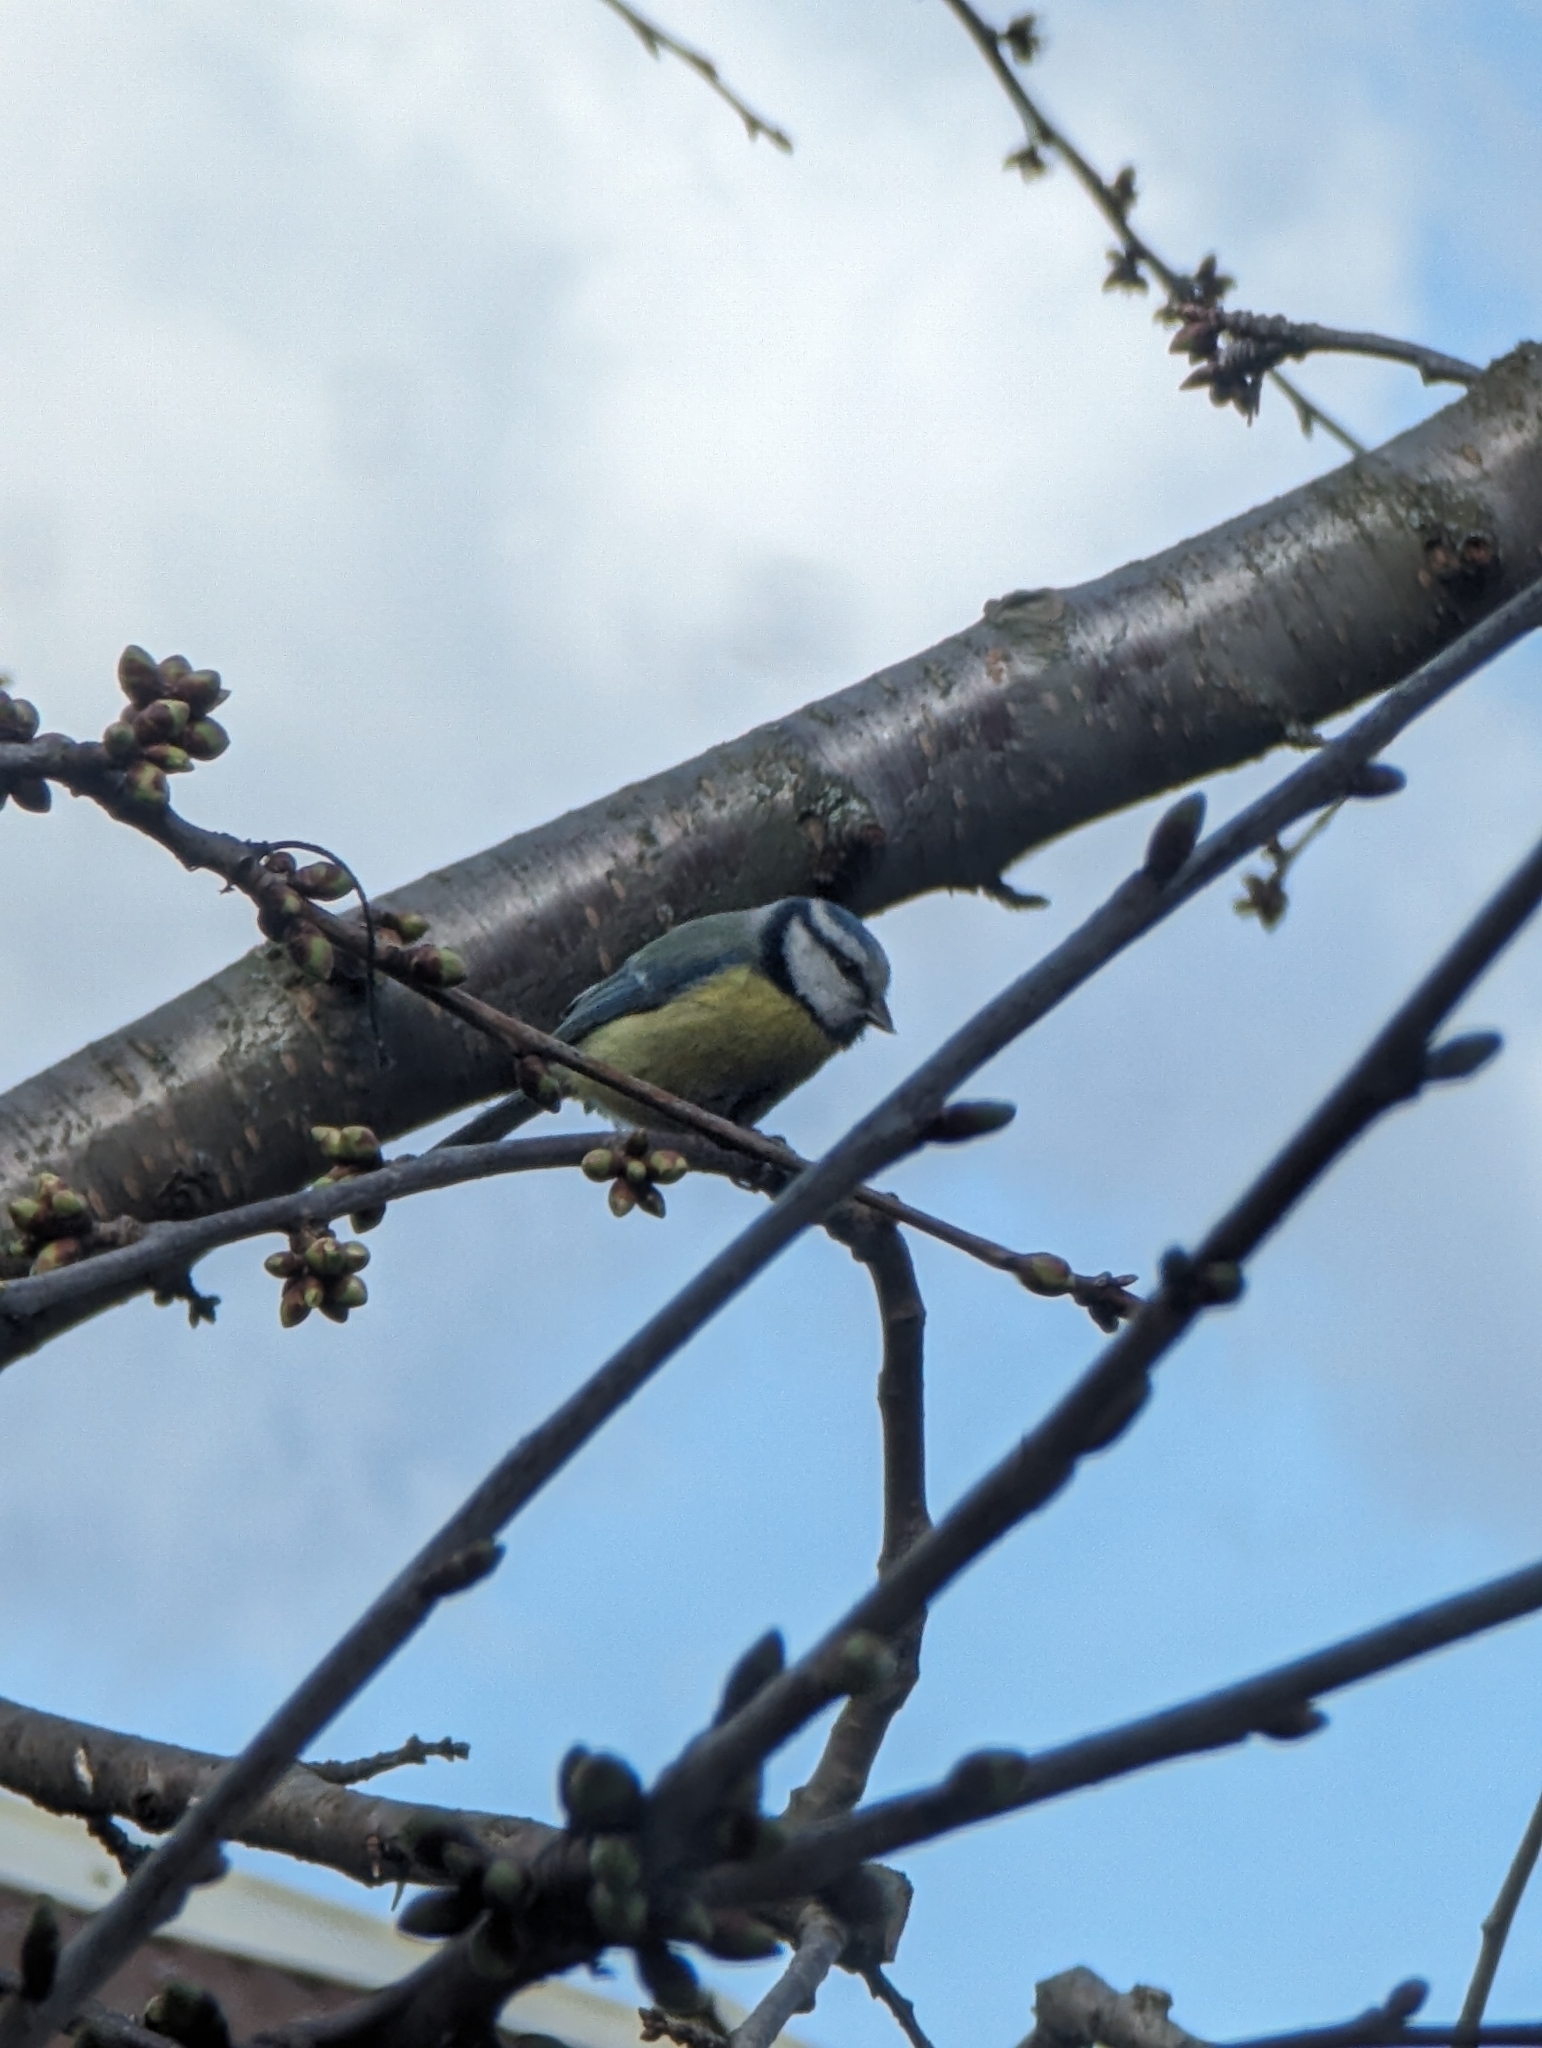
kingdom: Animalia
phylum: Chordata
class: Aves
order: Passeriformes
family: Paridae
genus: Cyanistes
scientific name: Cyanistes caeruleus
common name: Eurasian blue tit
